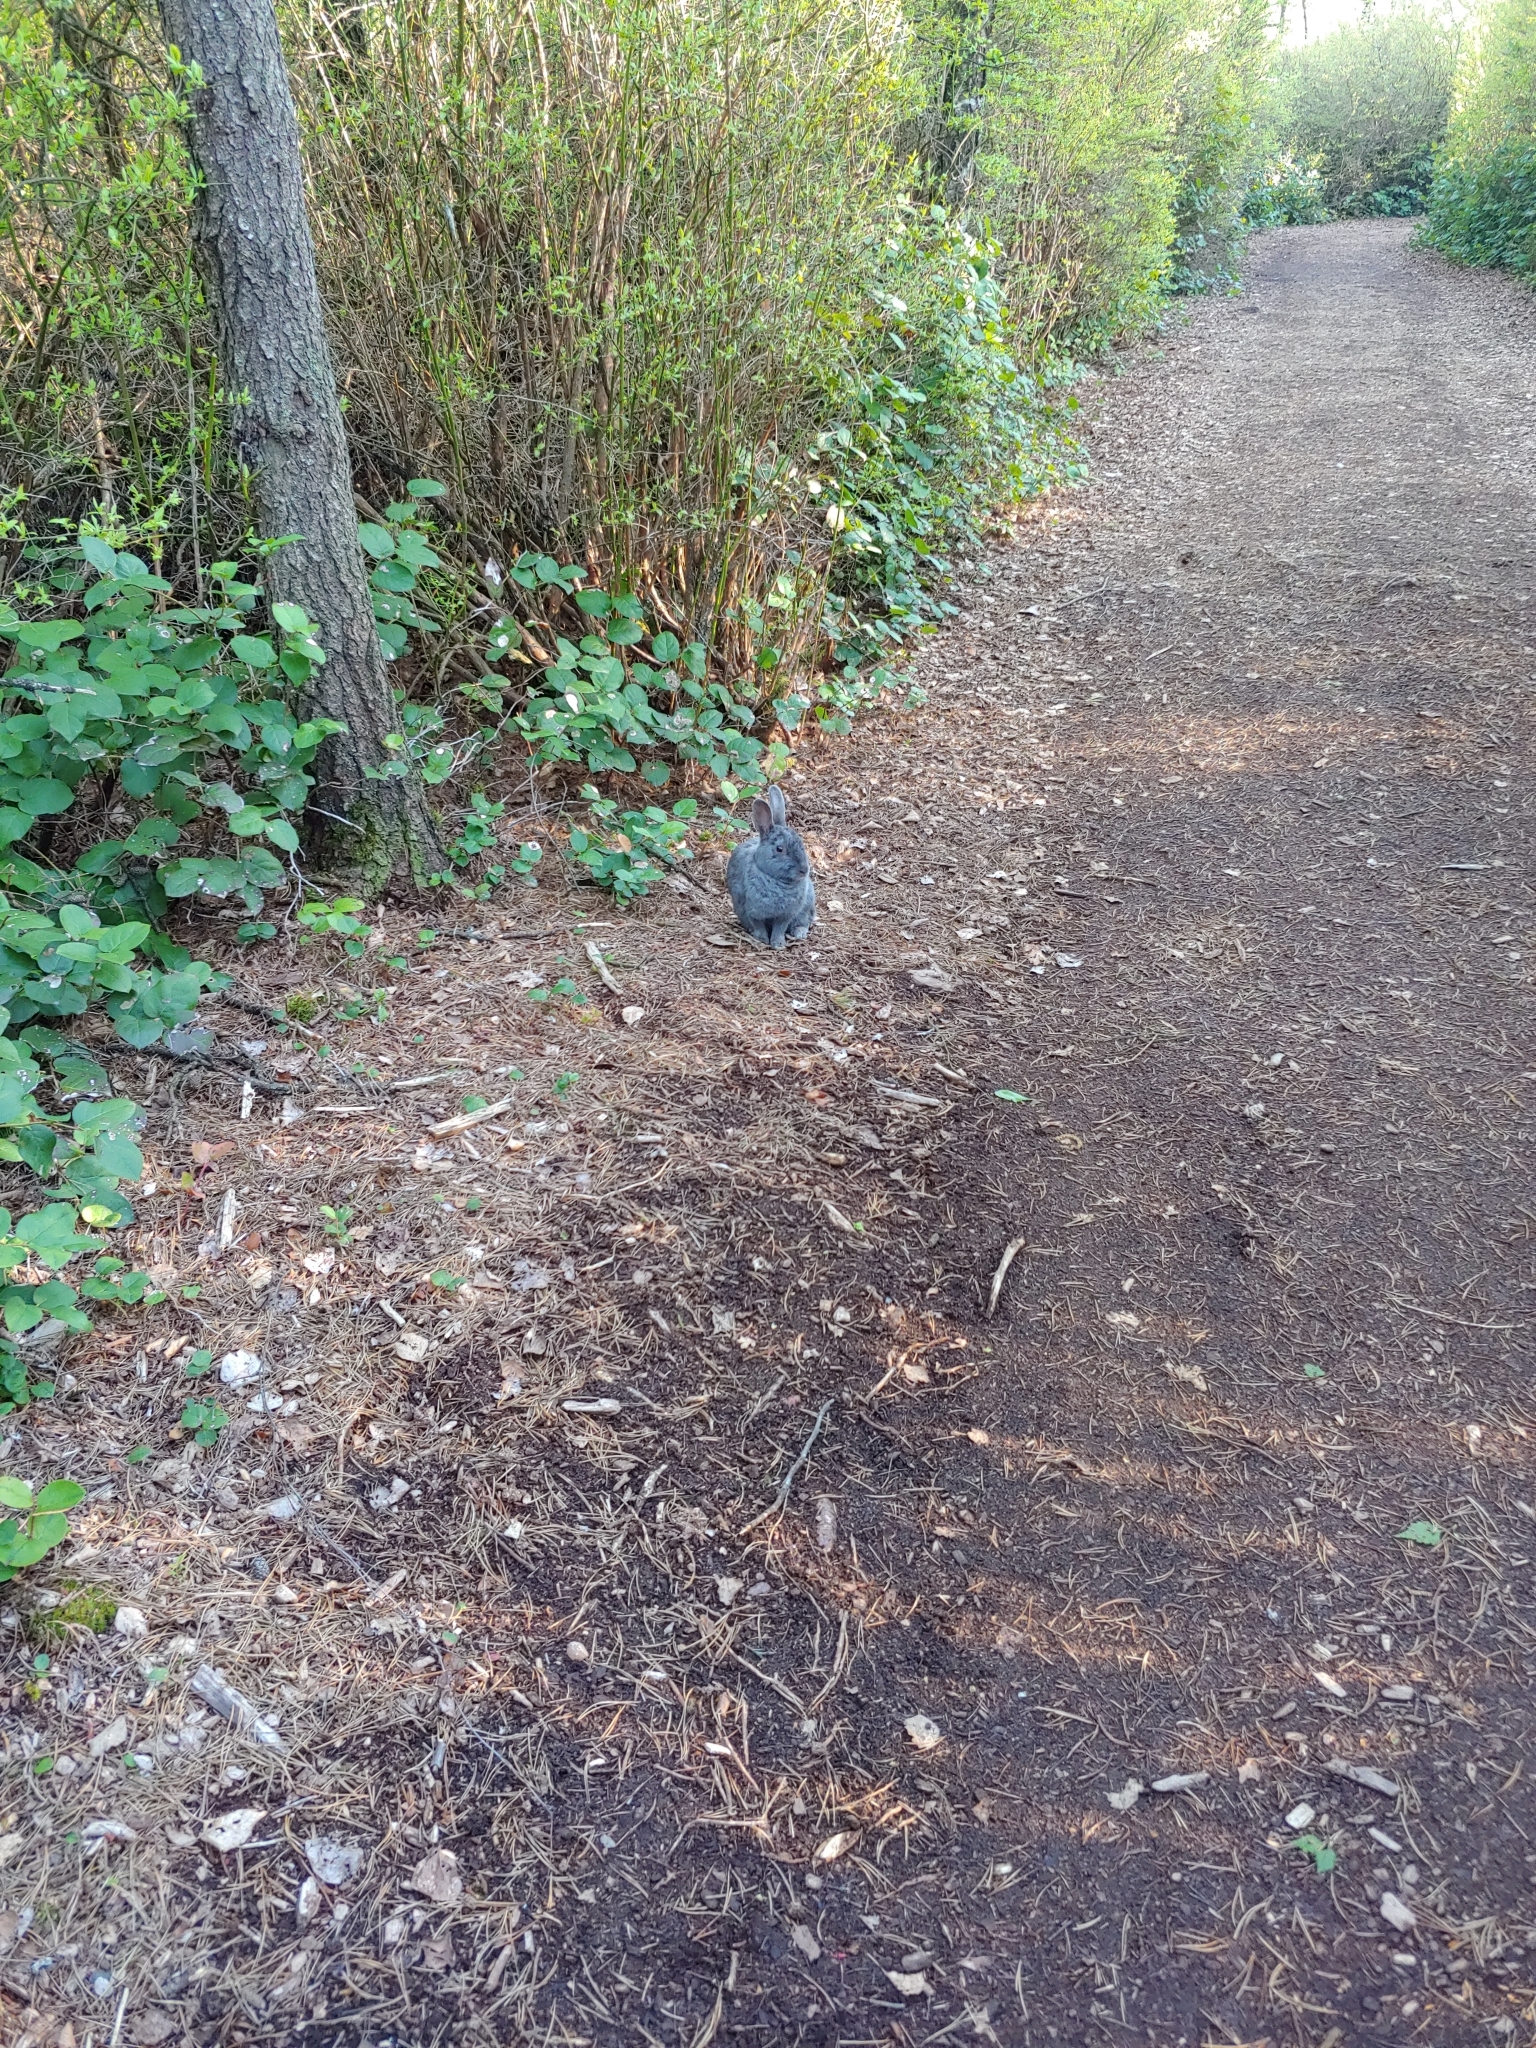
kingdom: Animalia
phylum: Chordata
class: Mammalia
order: Lagomorpha
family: Leporidae
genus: Oryctolagus
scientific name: Oryctolagus cuniculus
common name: European rabbit
